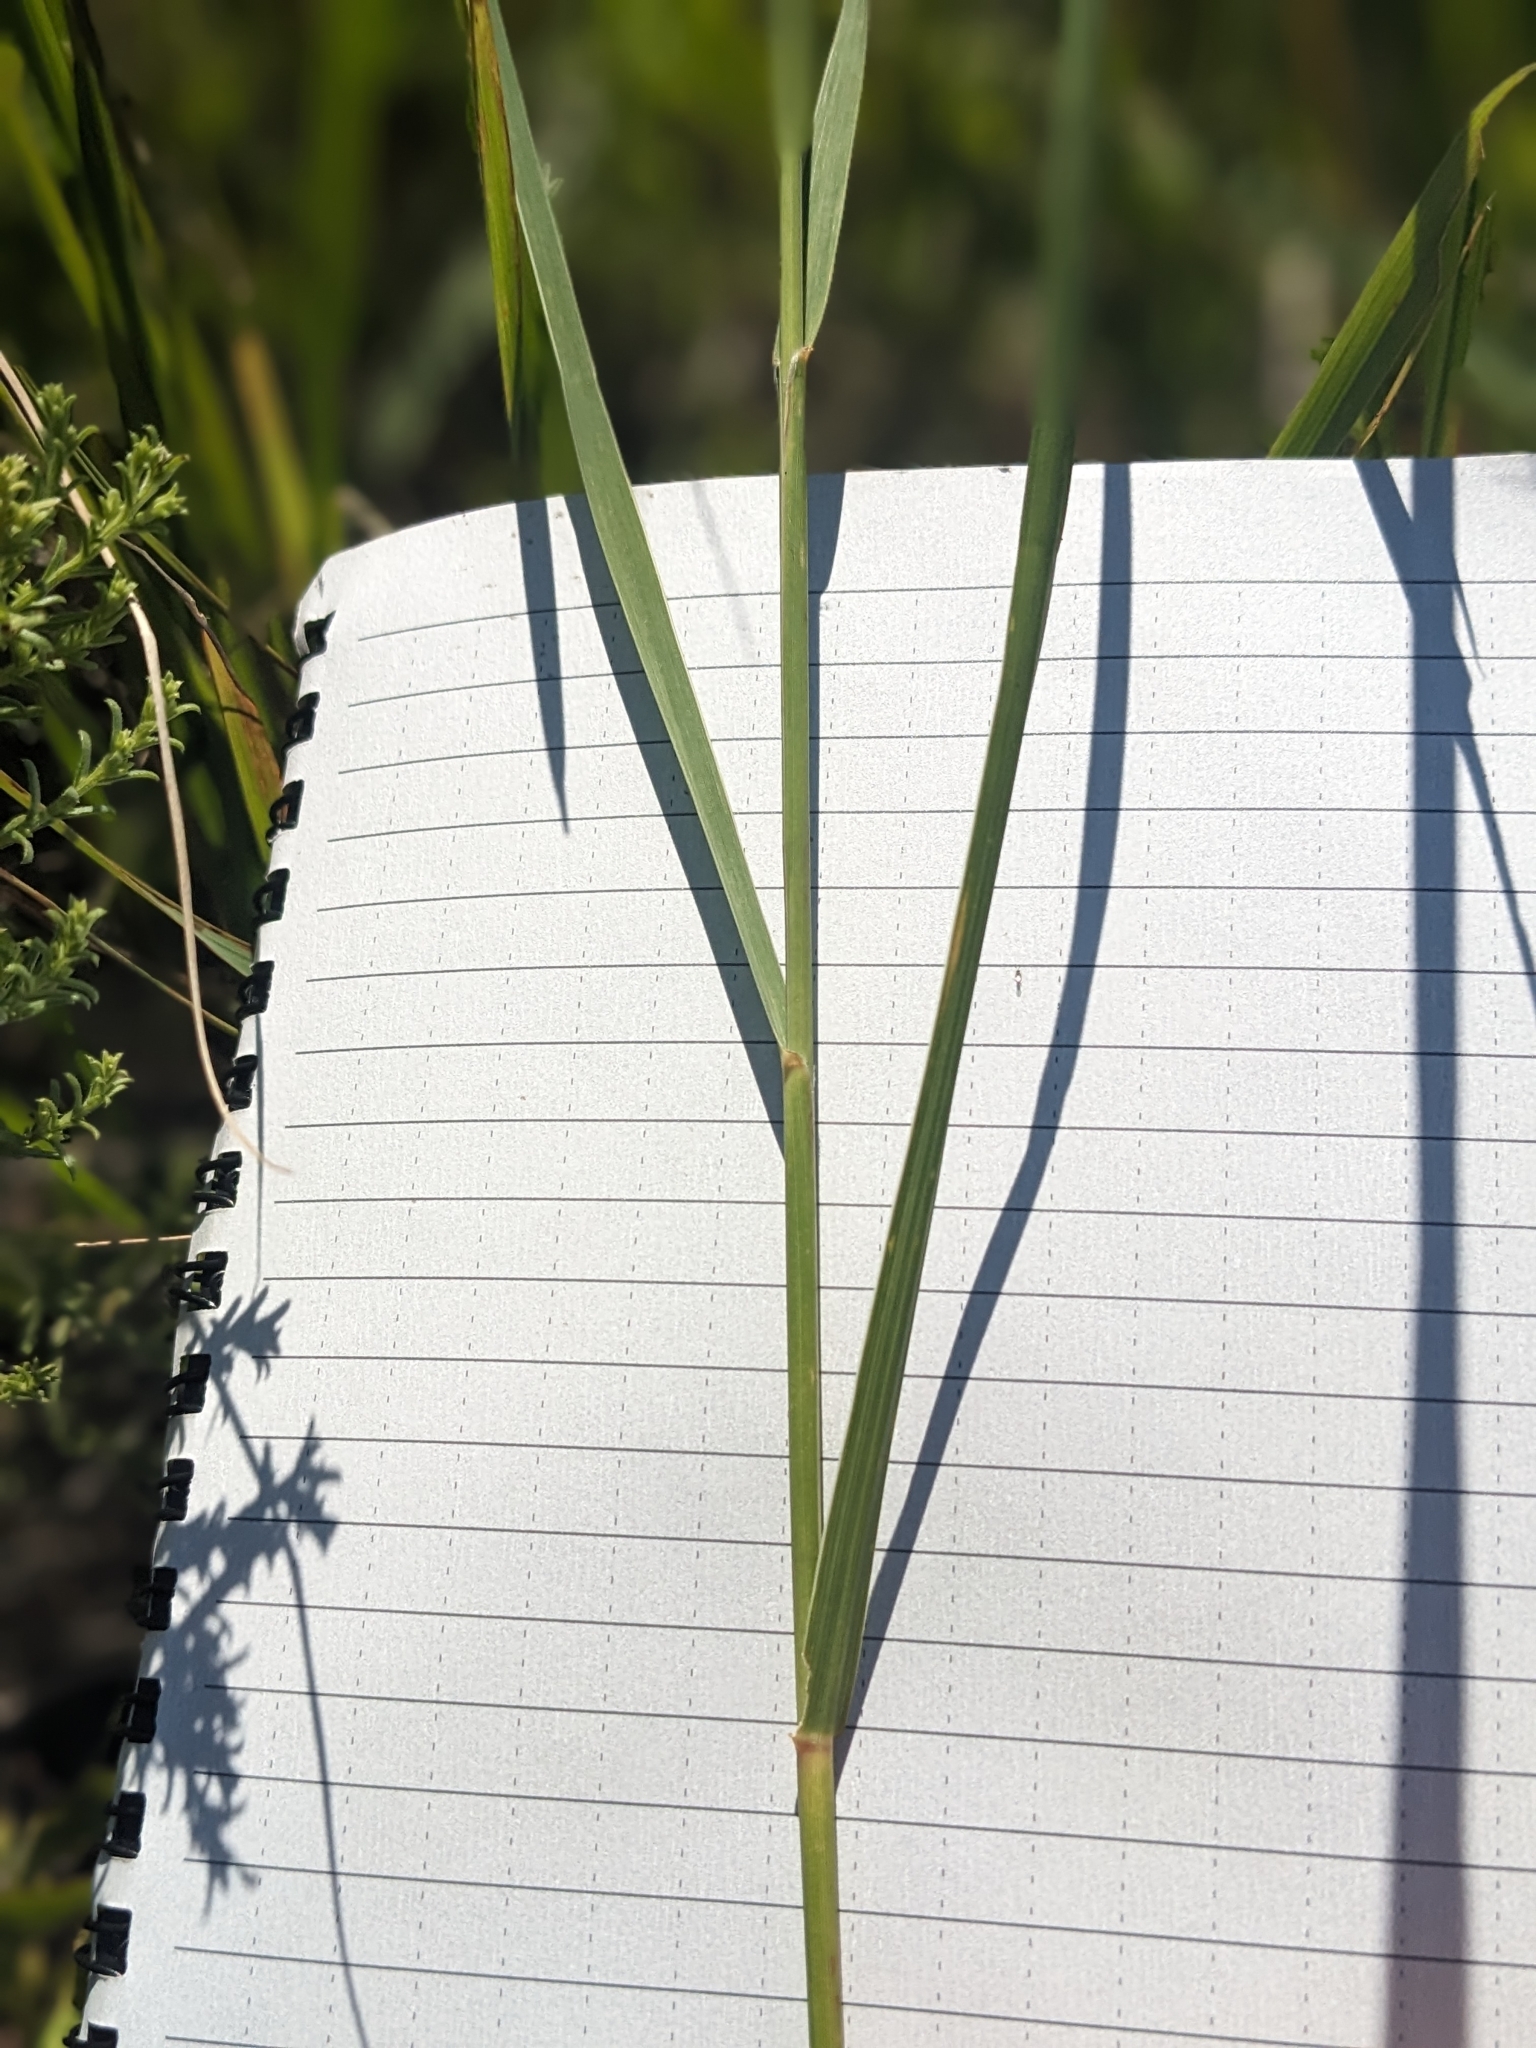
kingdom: Plantae
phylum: Tracheophyta
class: Liliopsida
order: Poales
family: Poaceae
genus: Sporobolus
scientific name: Sporobolus rigidus
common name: Prairie sandreed
